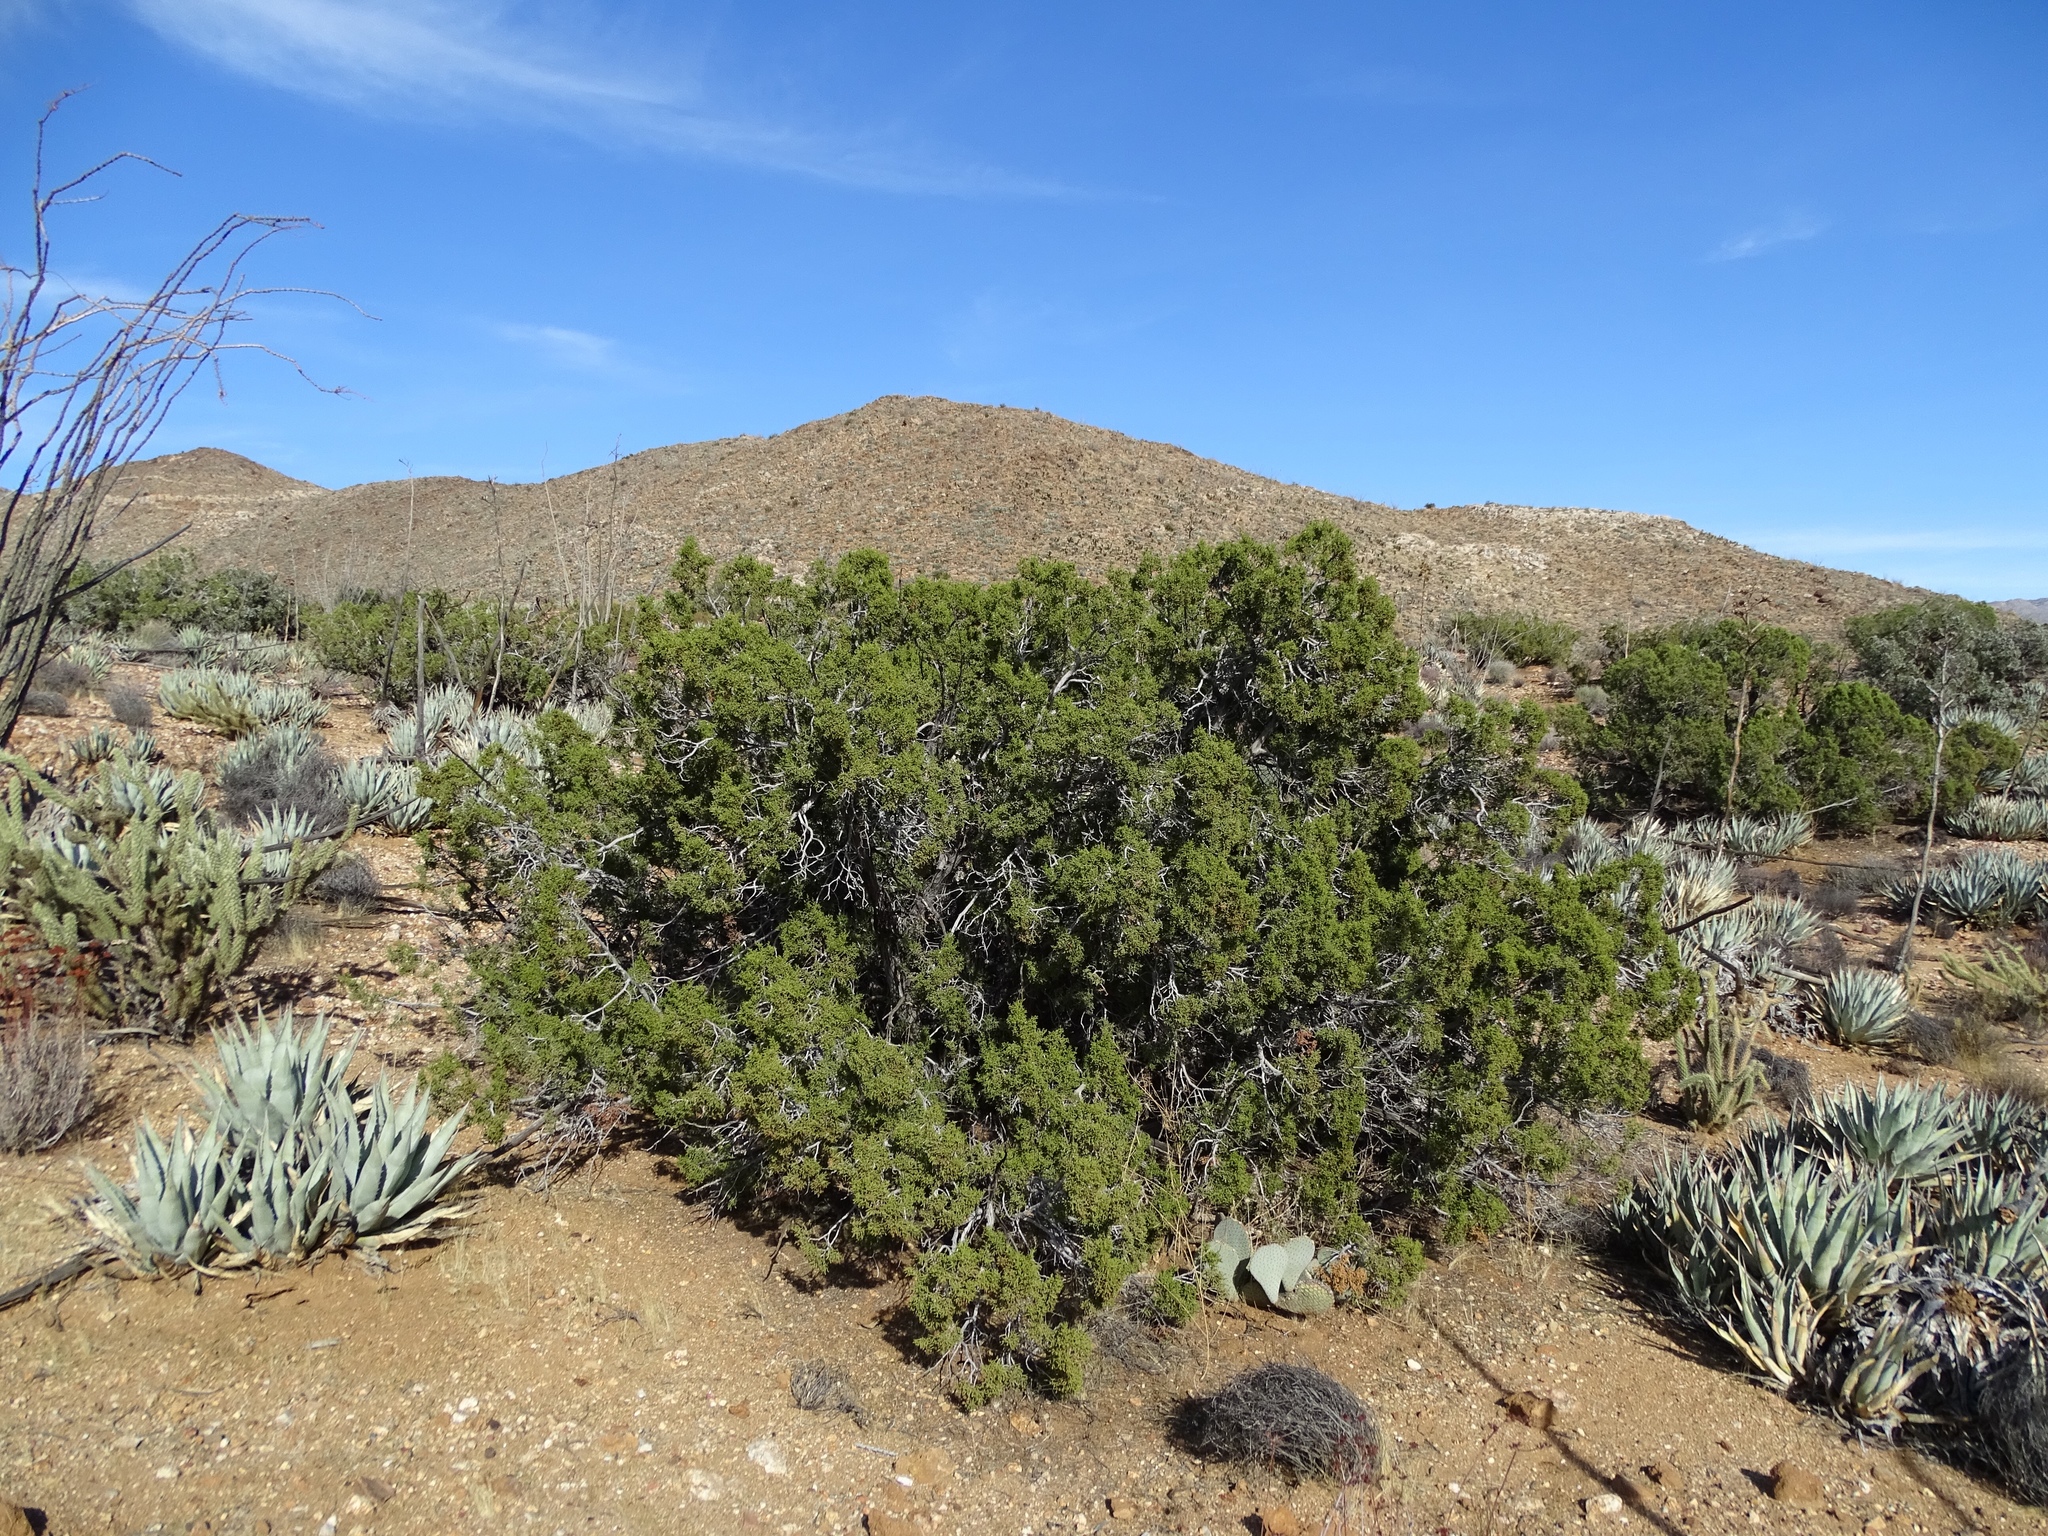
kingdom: Plantae
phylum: Tracheophyta
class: Pinopsida
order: Pinales
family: Cupressaceae
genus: Juniperus
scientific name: Juniperus californica
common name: California juniper
